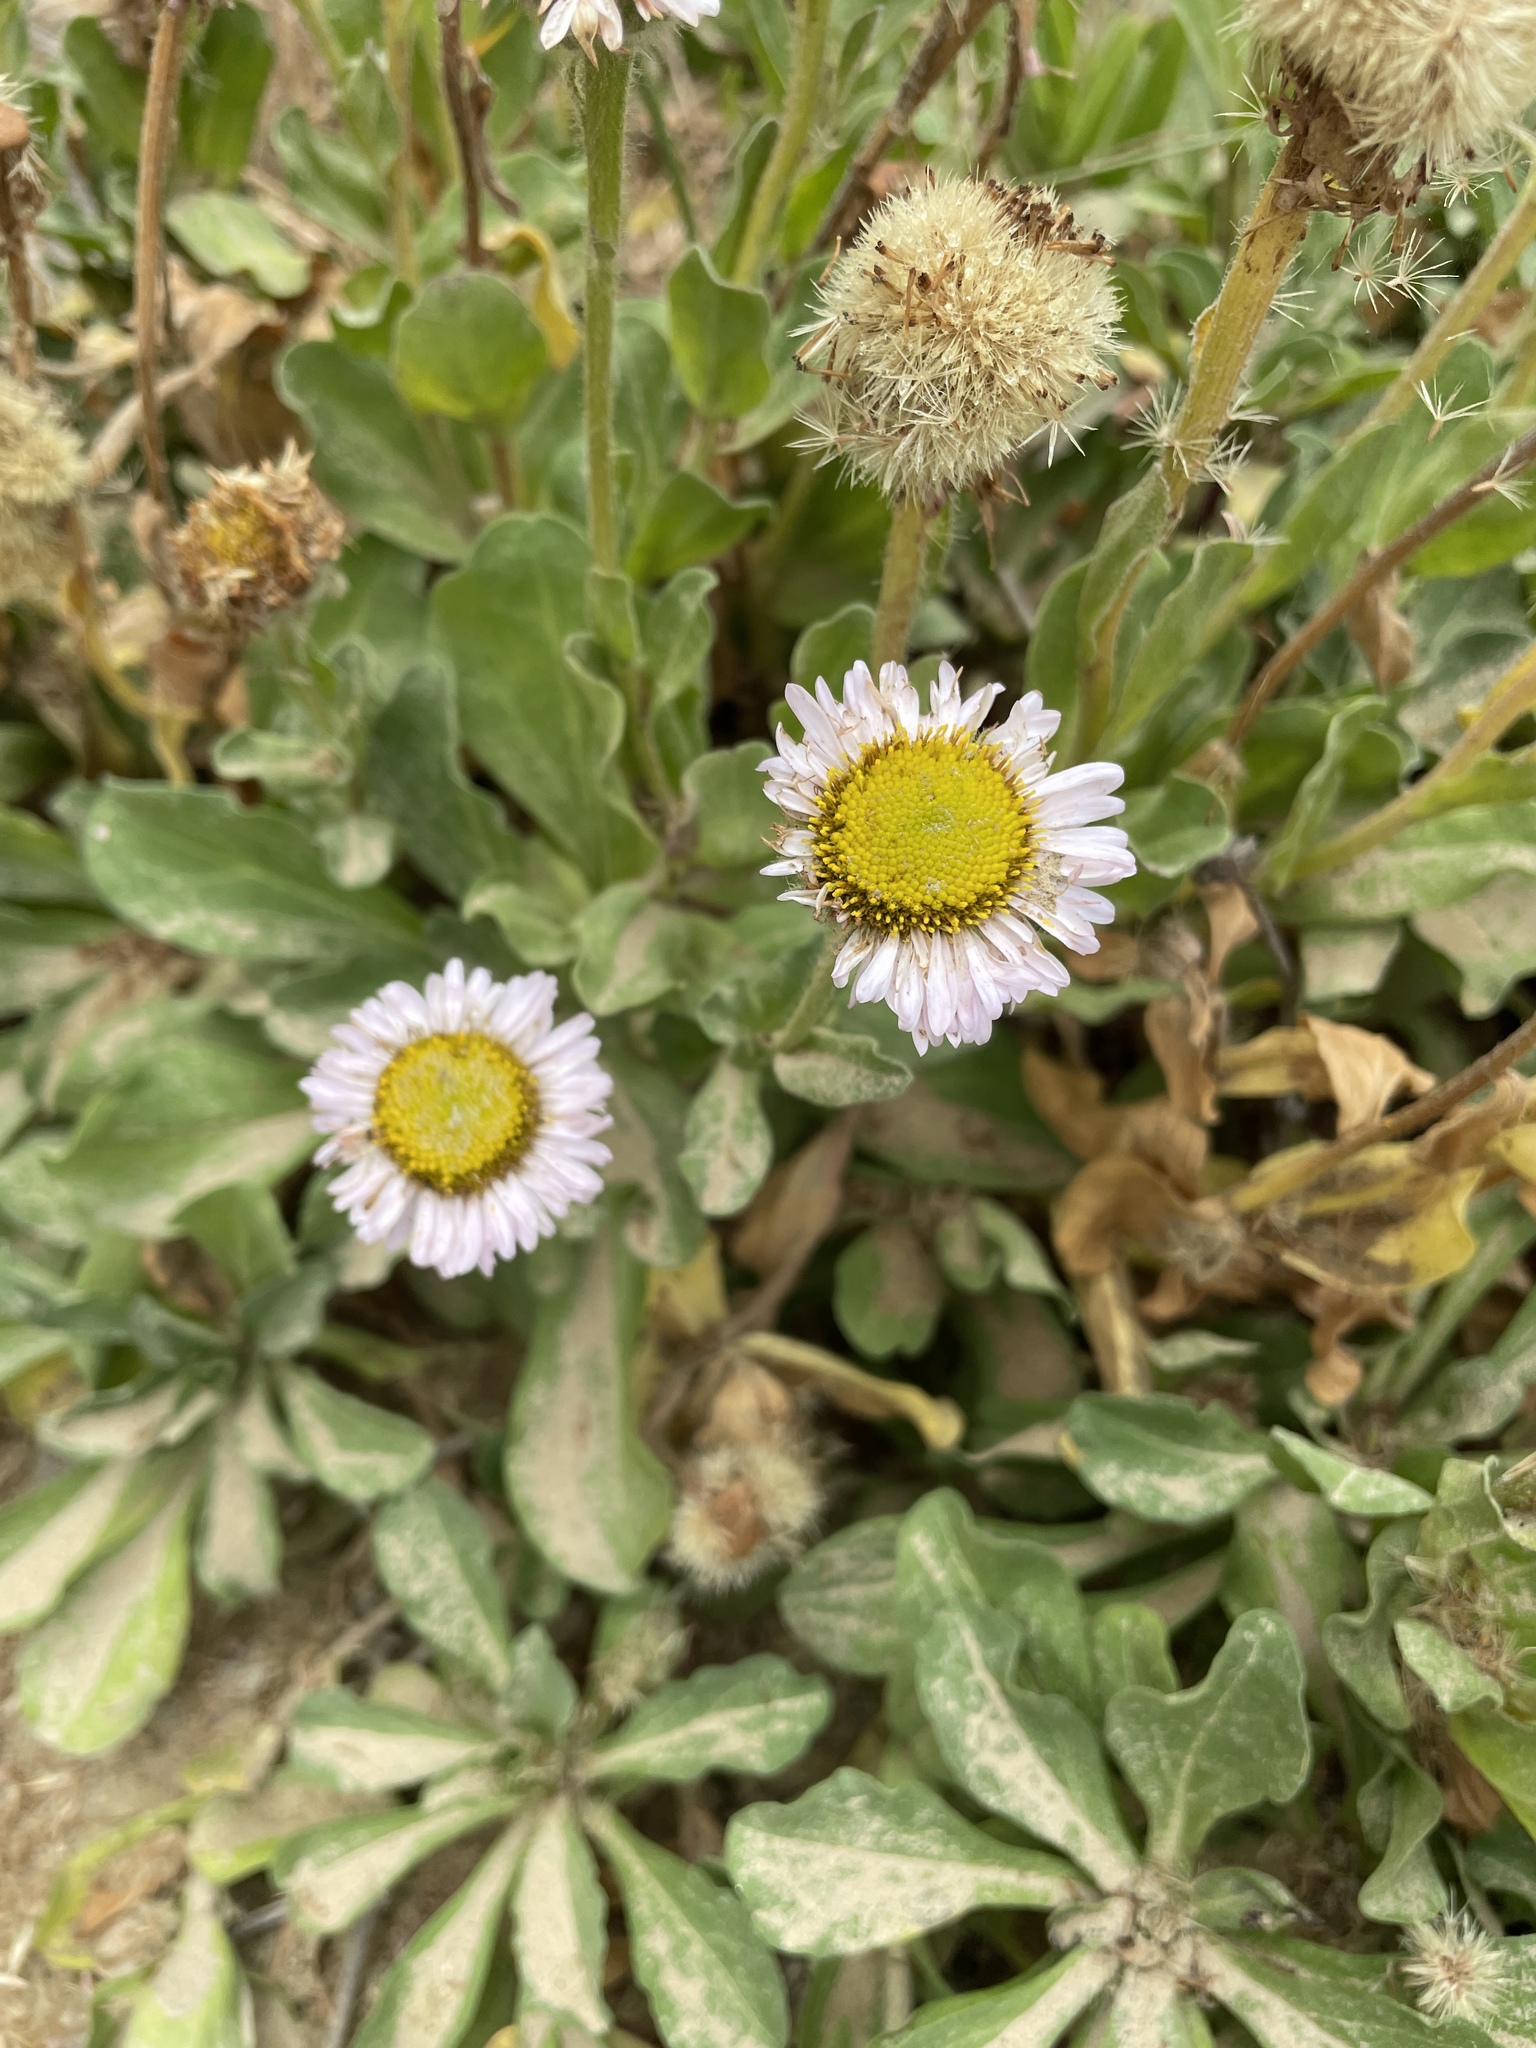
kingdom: Plantae
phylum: Tracheophyta
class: Magnoliopsida
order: Asterales
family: Asteraceae
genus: Erigeron
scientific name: Erigeron glaucus
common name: Seaside daisy
